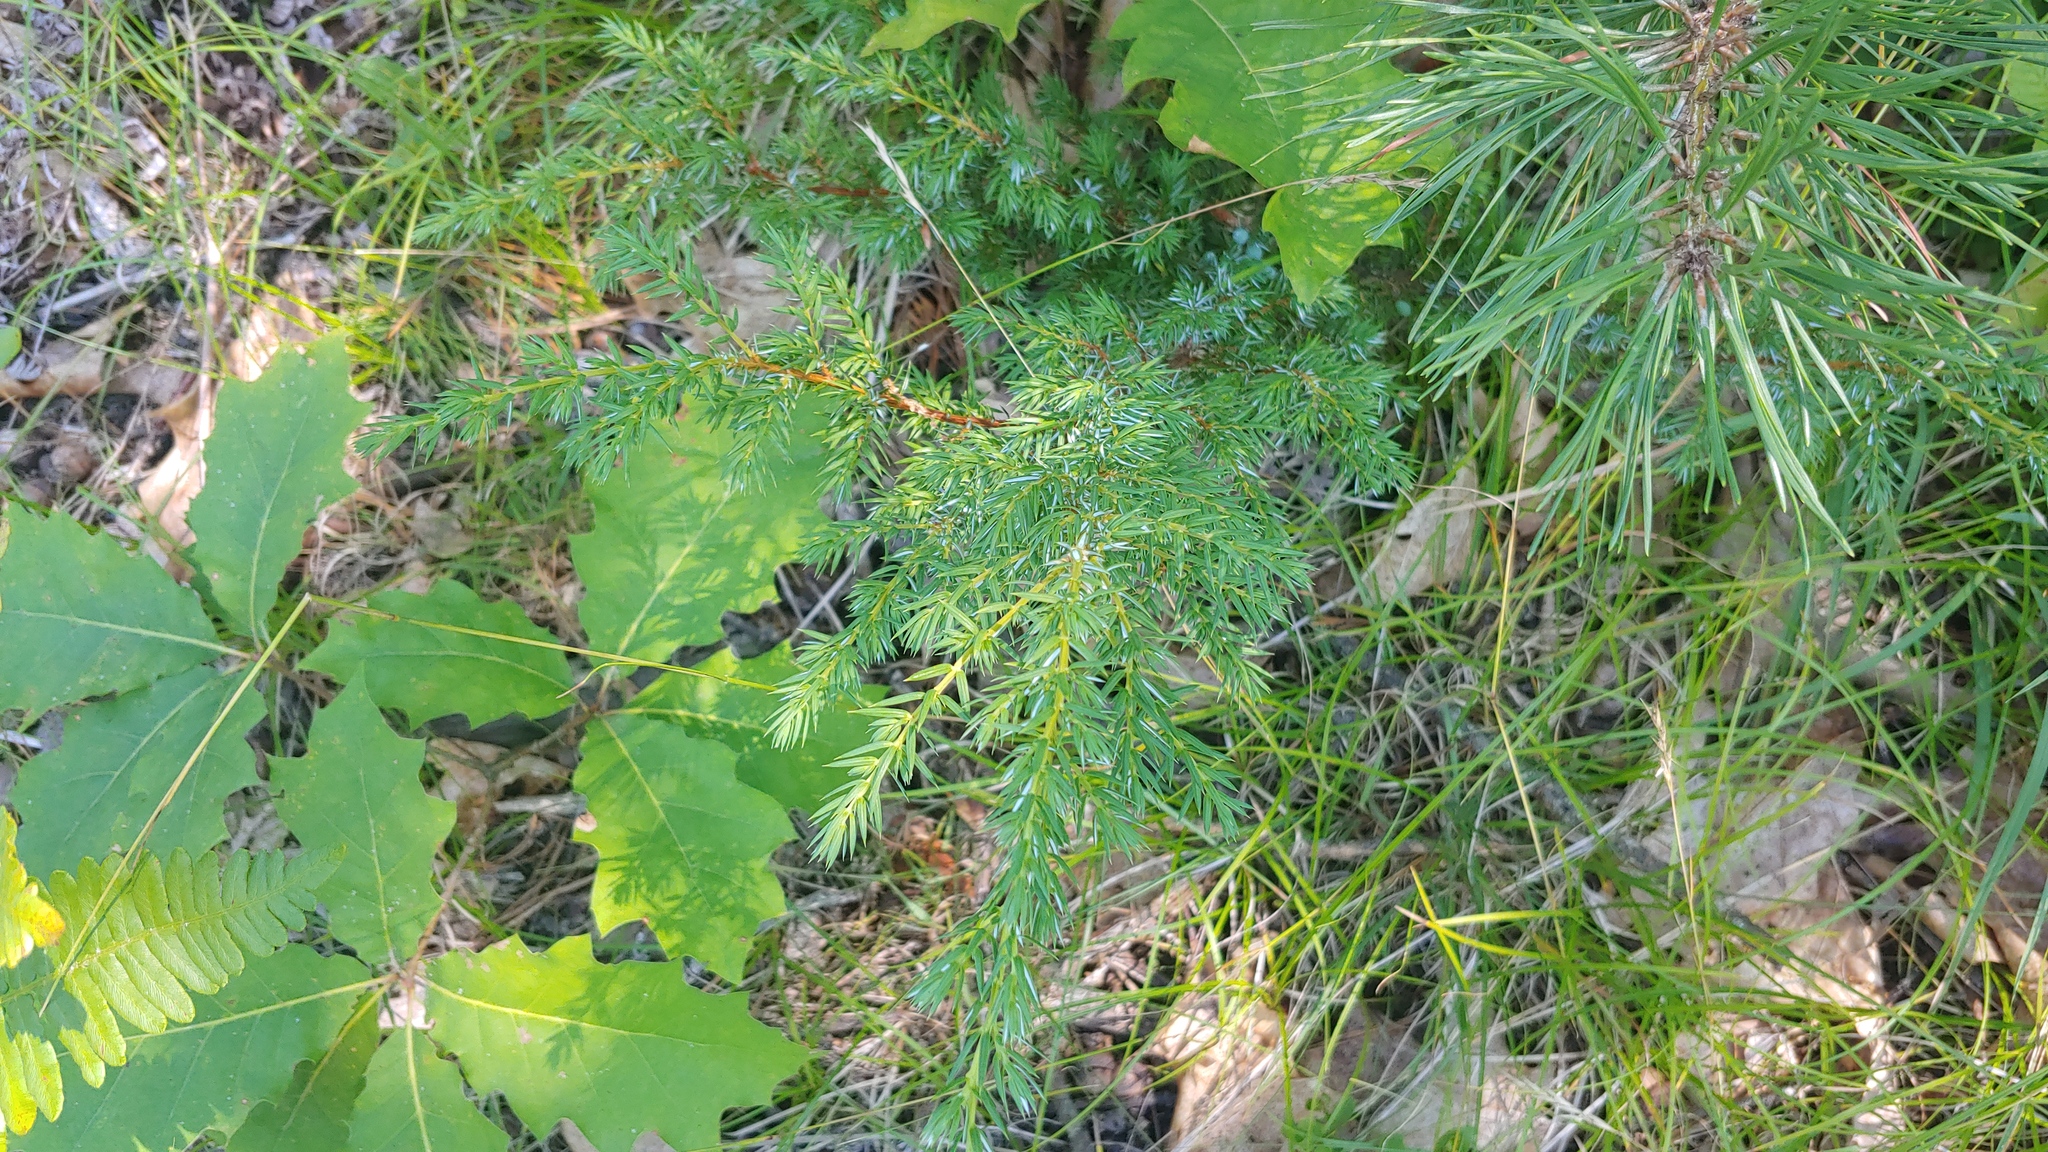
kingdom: Plantae
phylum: Tracheophyta
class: Pinopsida
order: Pinales
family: Cupressaceae
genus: Juniperus
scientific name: Juniperus communis
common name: Common juniper
